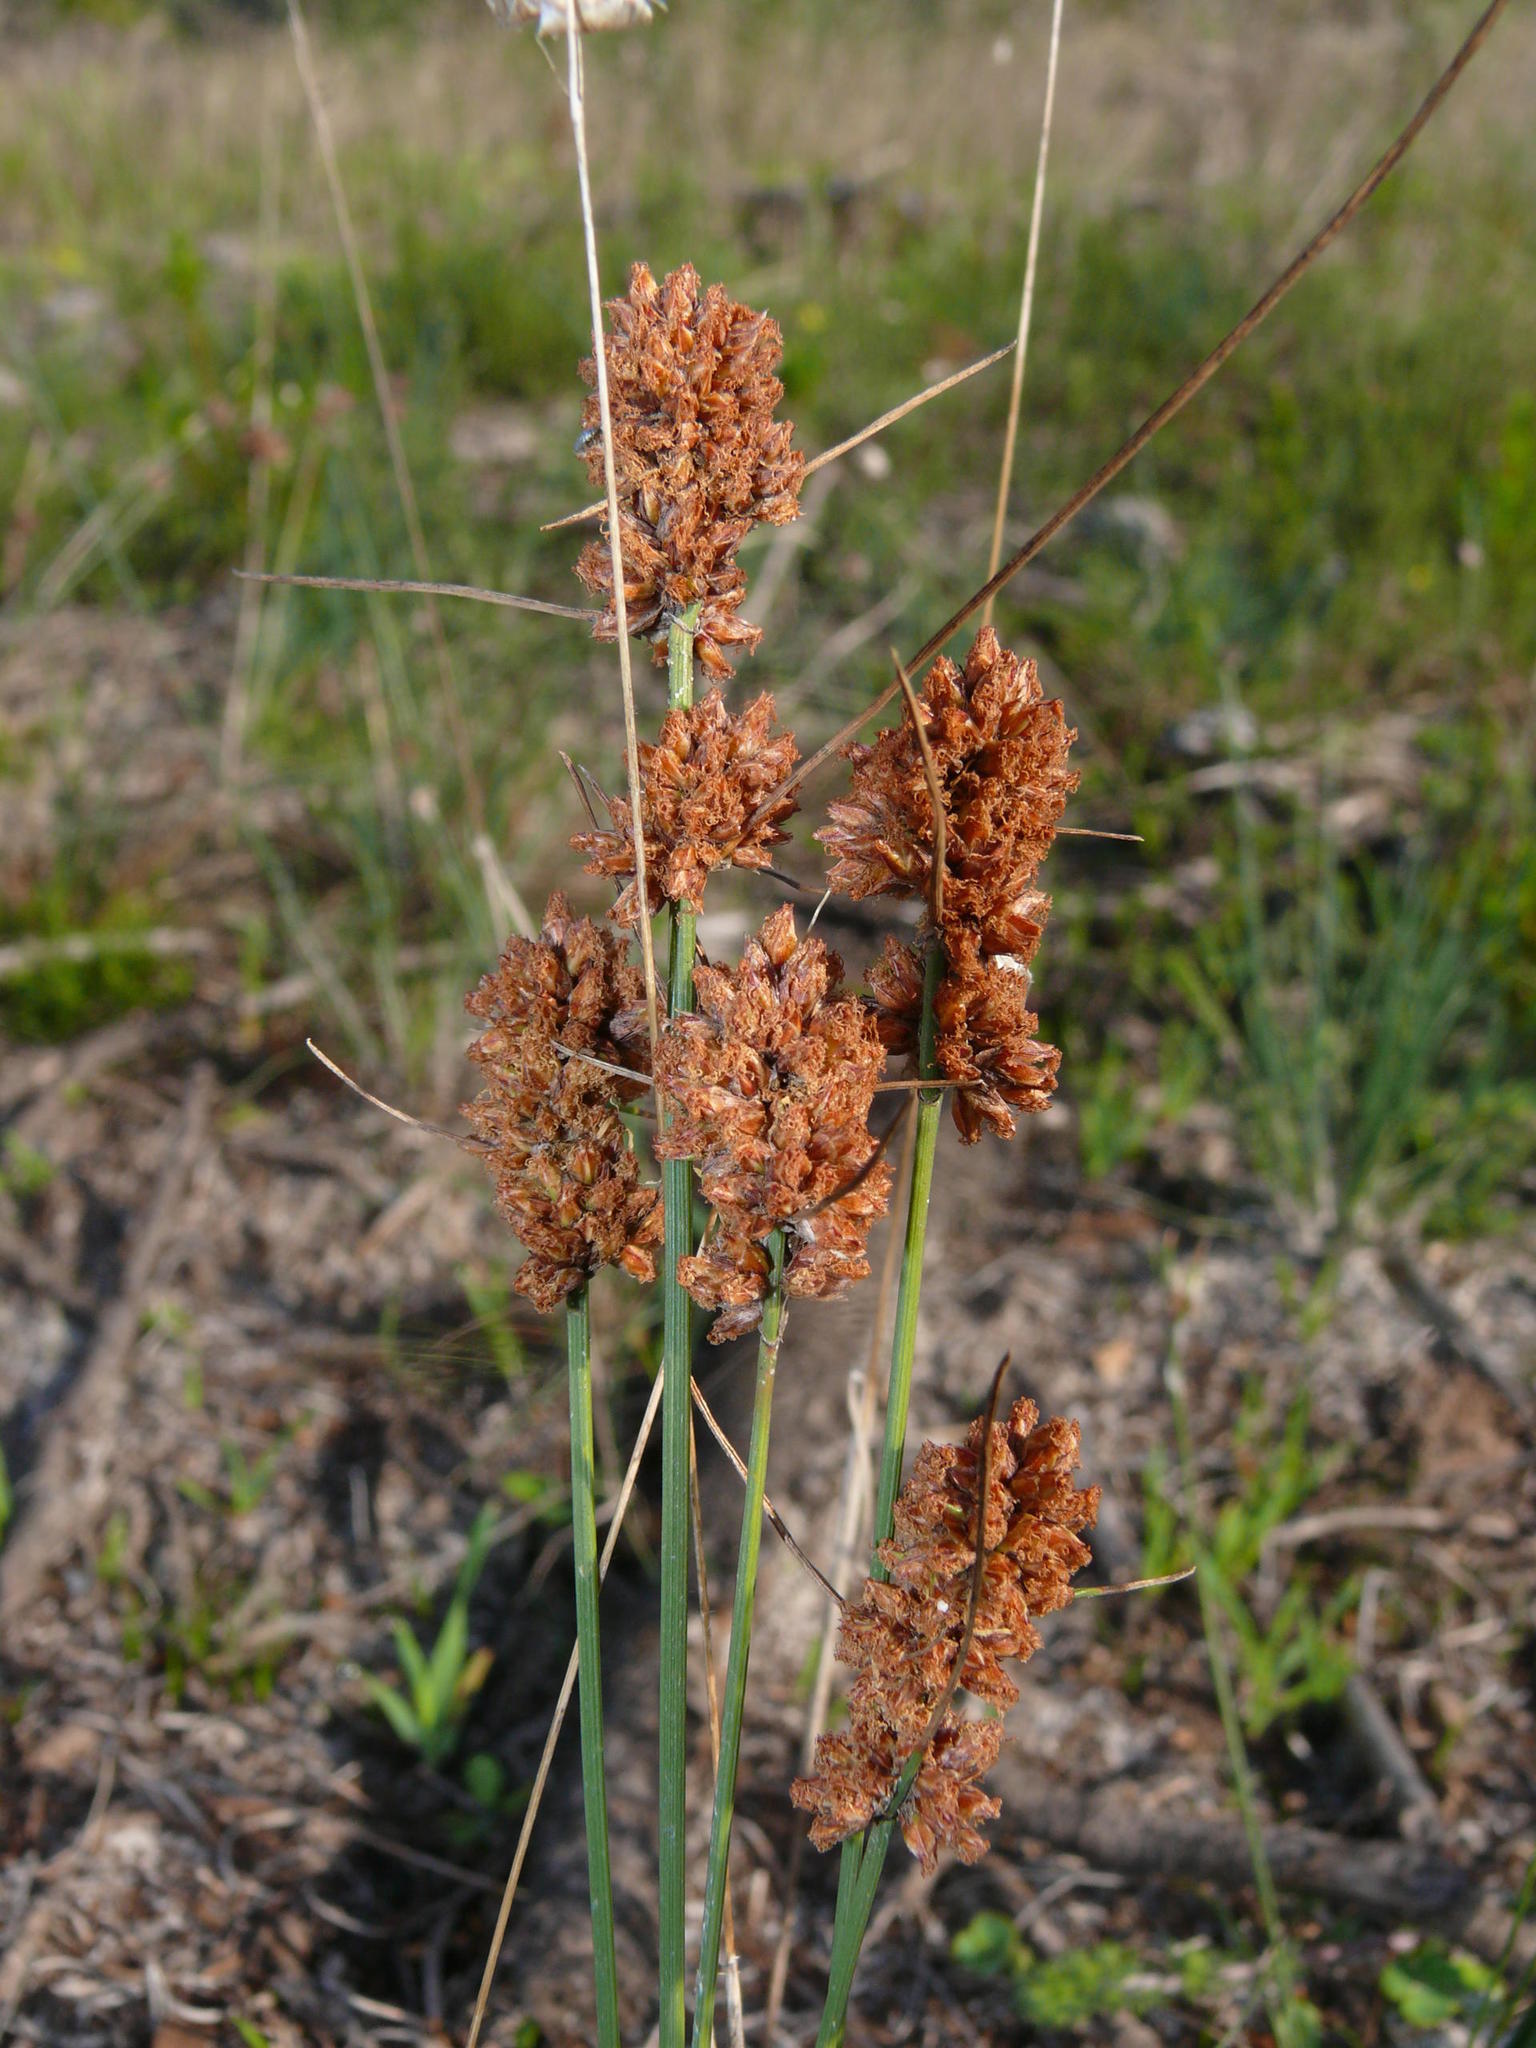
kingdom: Plantae
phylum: Tracheophyta
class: Liliopsida
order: Poales
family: Cyperaceae
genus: Ficinia
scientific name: Ficinia bulbosa
